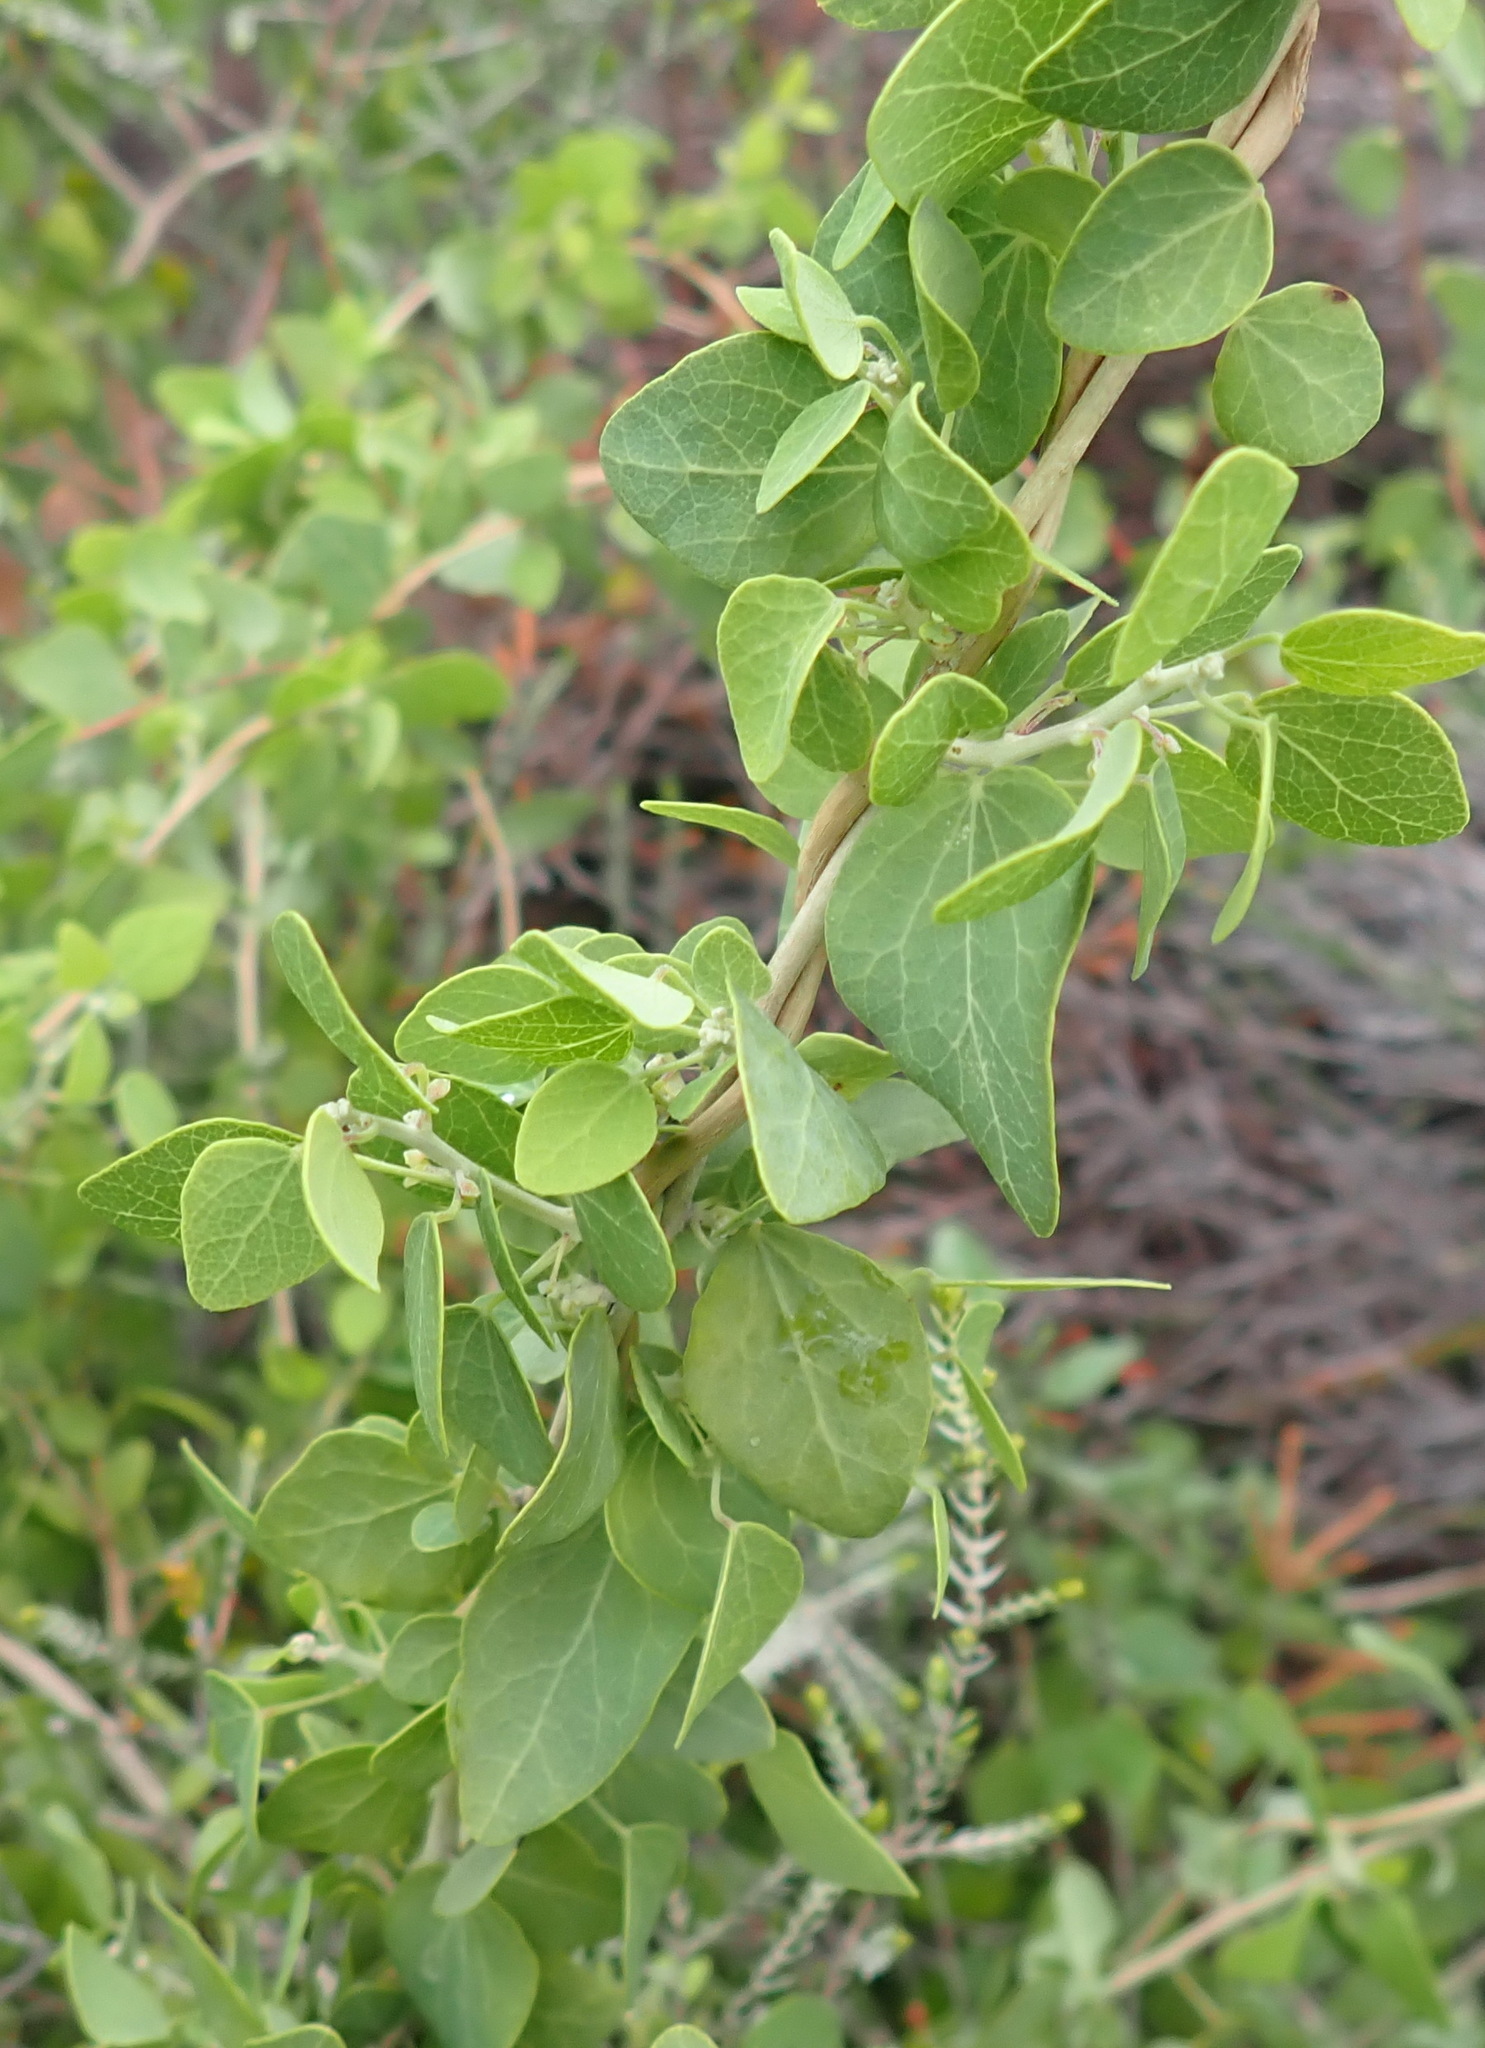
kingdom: Plantae
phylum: Tracheophyta
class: Magnoliopsida
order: Ranunculales
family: Menispermaceae
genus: Cissampelos
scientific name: Cissampelos capensis
